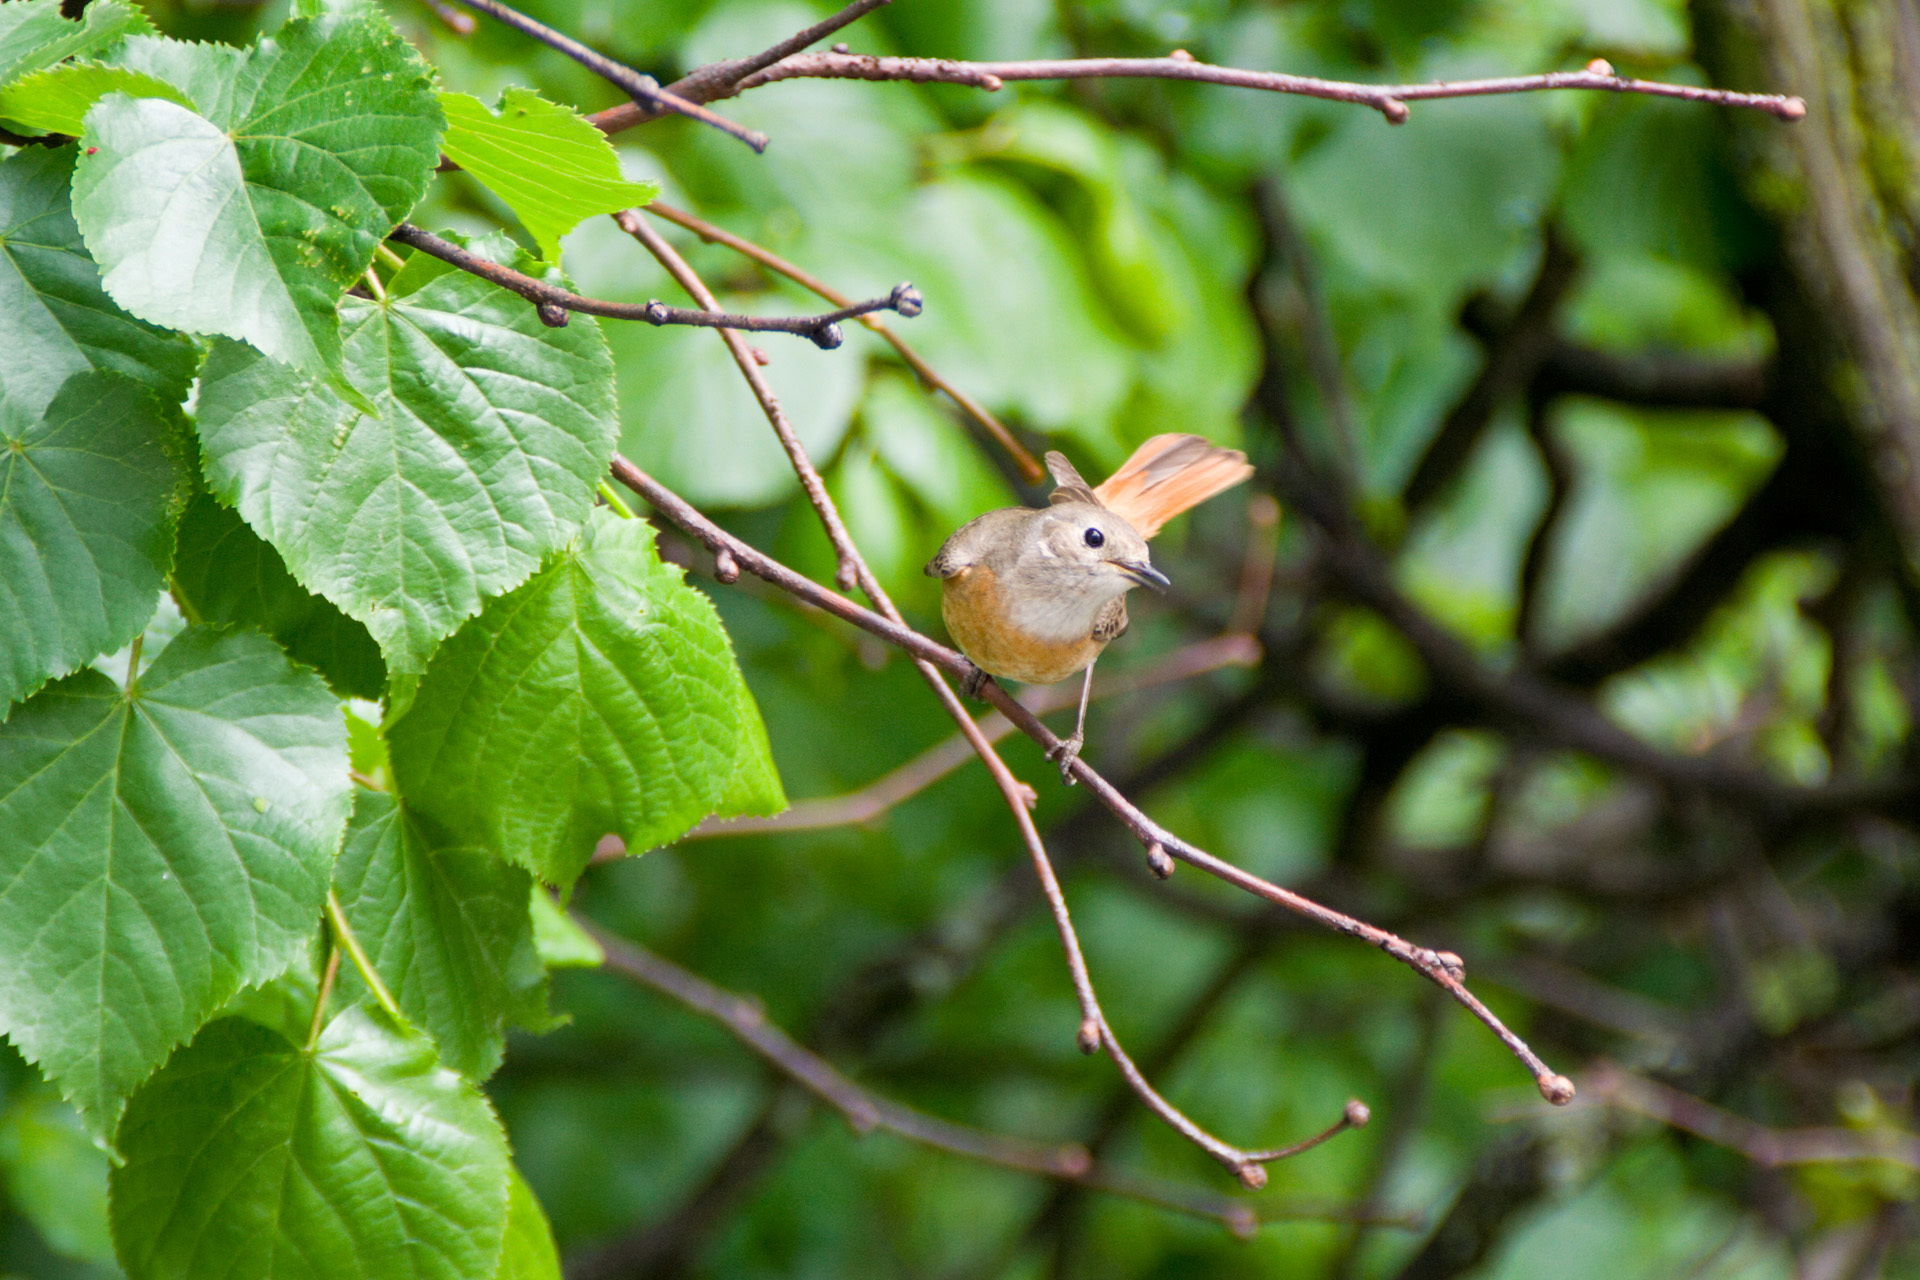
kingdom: Animalia
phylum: Chordata
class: Aves
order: Passeriformes
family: Muscicapidae
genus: Phoenicurus
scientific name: Phoenicurus phoenicurus
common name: Common redstart
